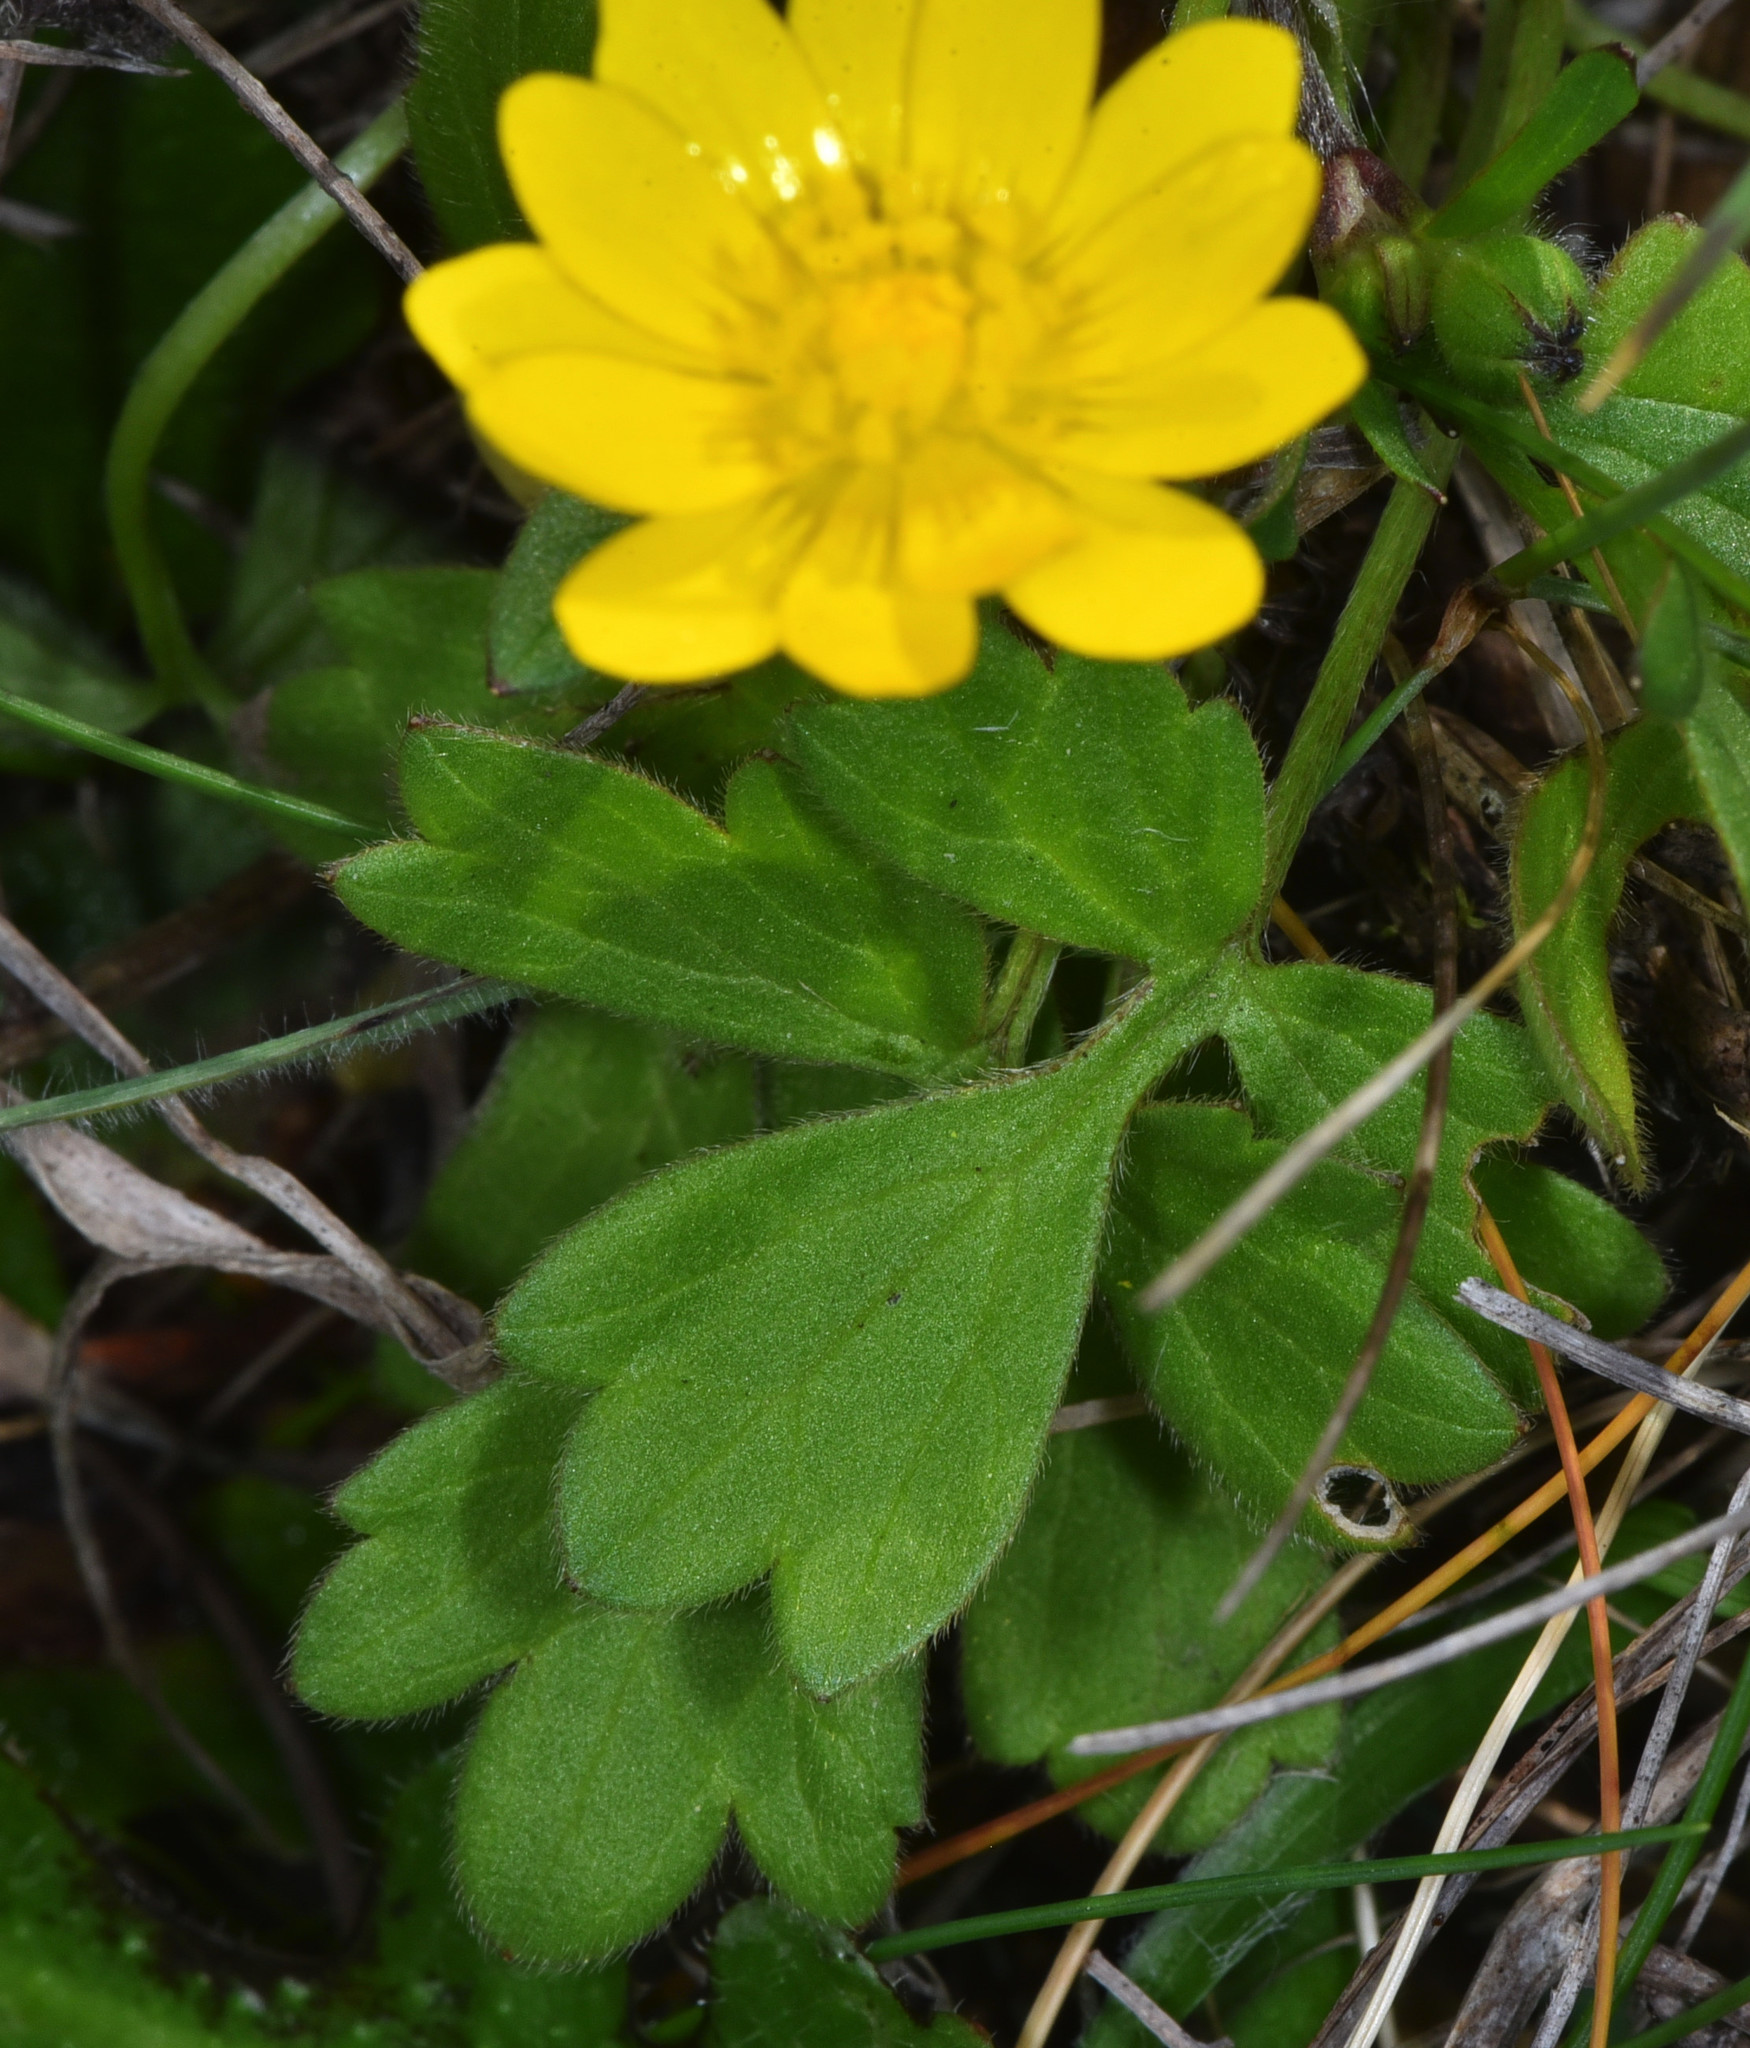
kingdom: Plantae
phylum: Tracheophyta
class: Magnoliopsida
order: Ranunculales
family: Ranunculaceae
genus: Ranunculus
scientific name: Ranunculus californicus
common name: California buttercup
